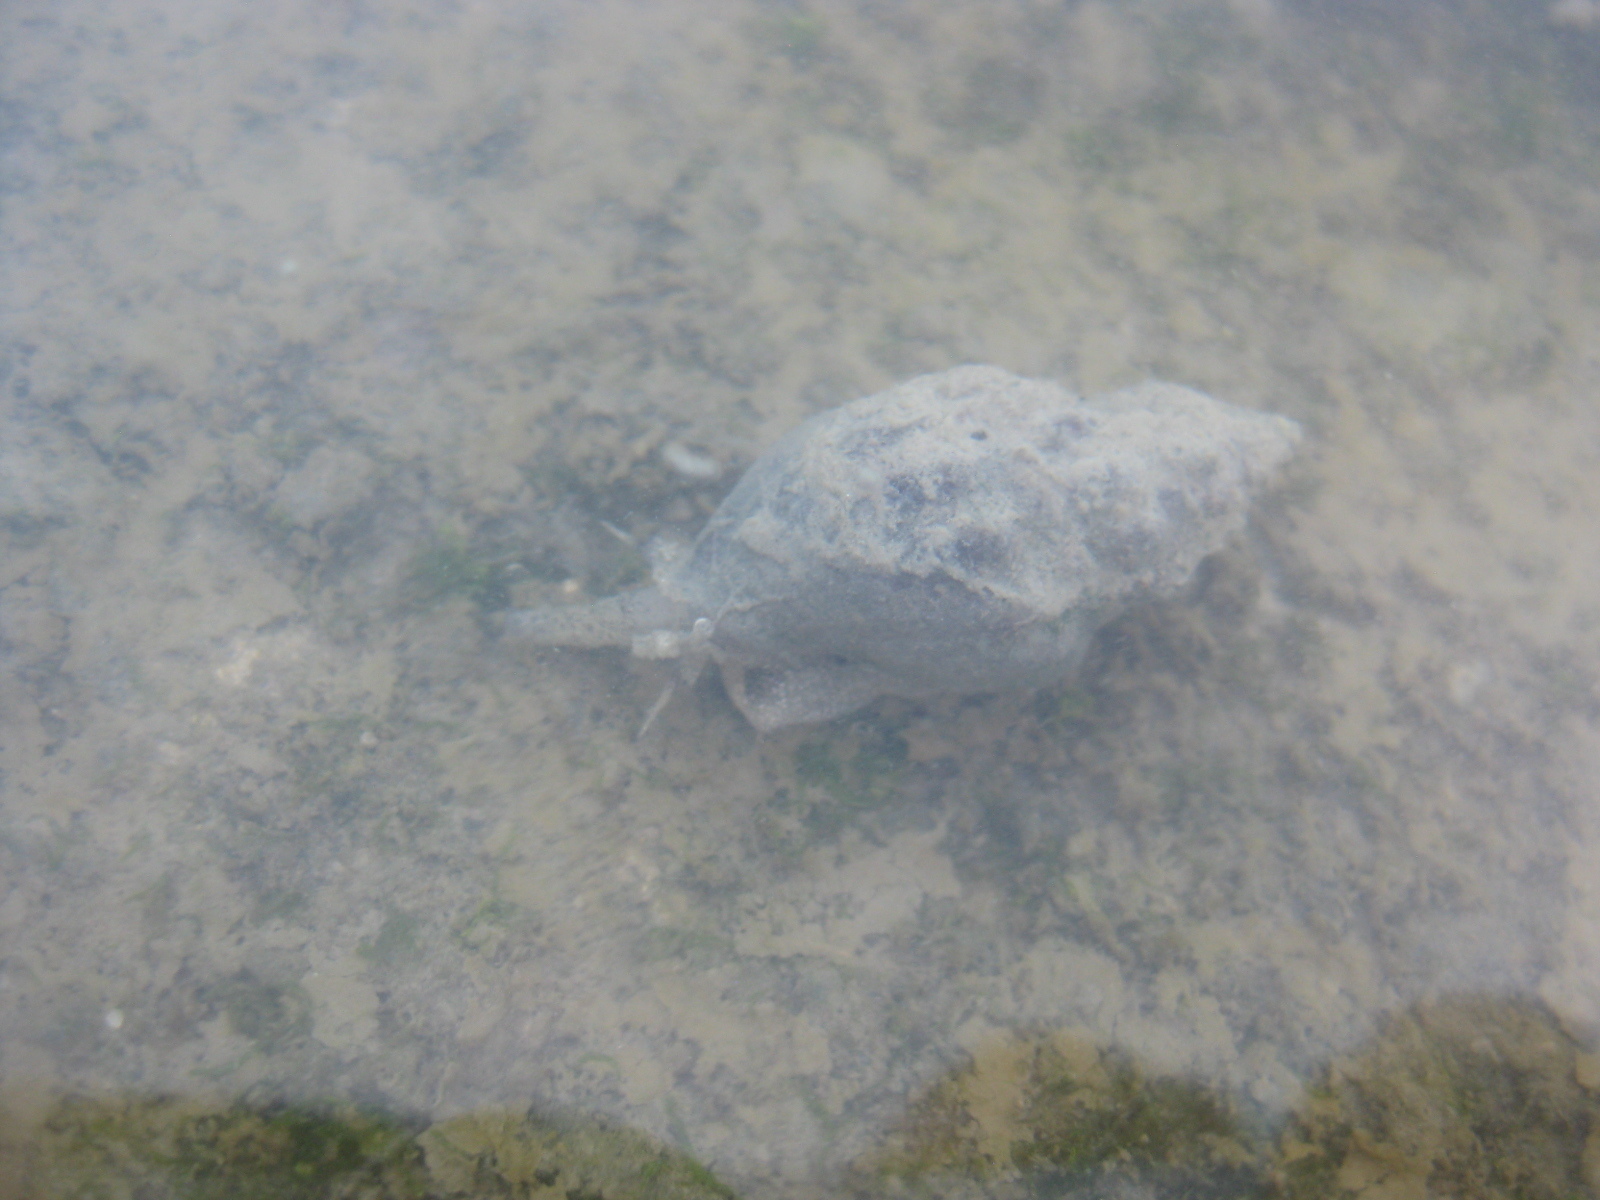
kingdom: Animalia
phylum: Mollusca
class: Gastropoda
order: Neogastropoda
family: Cominellidae
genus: Cominella
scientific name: Cominella glandiformis
